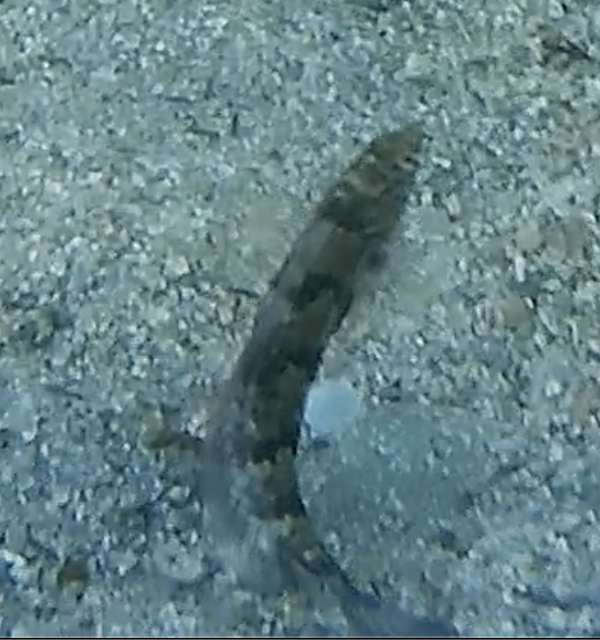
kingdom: Animalia
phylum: Chordata
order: Perciformes
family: Labridae
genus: Eupetrichthys
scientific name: Eupetrichthys angustipes
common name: Snake-skin wrasse
